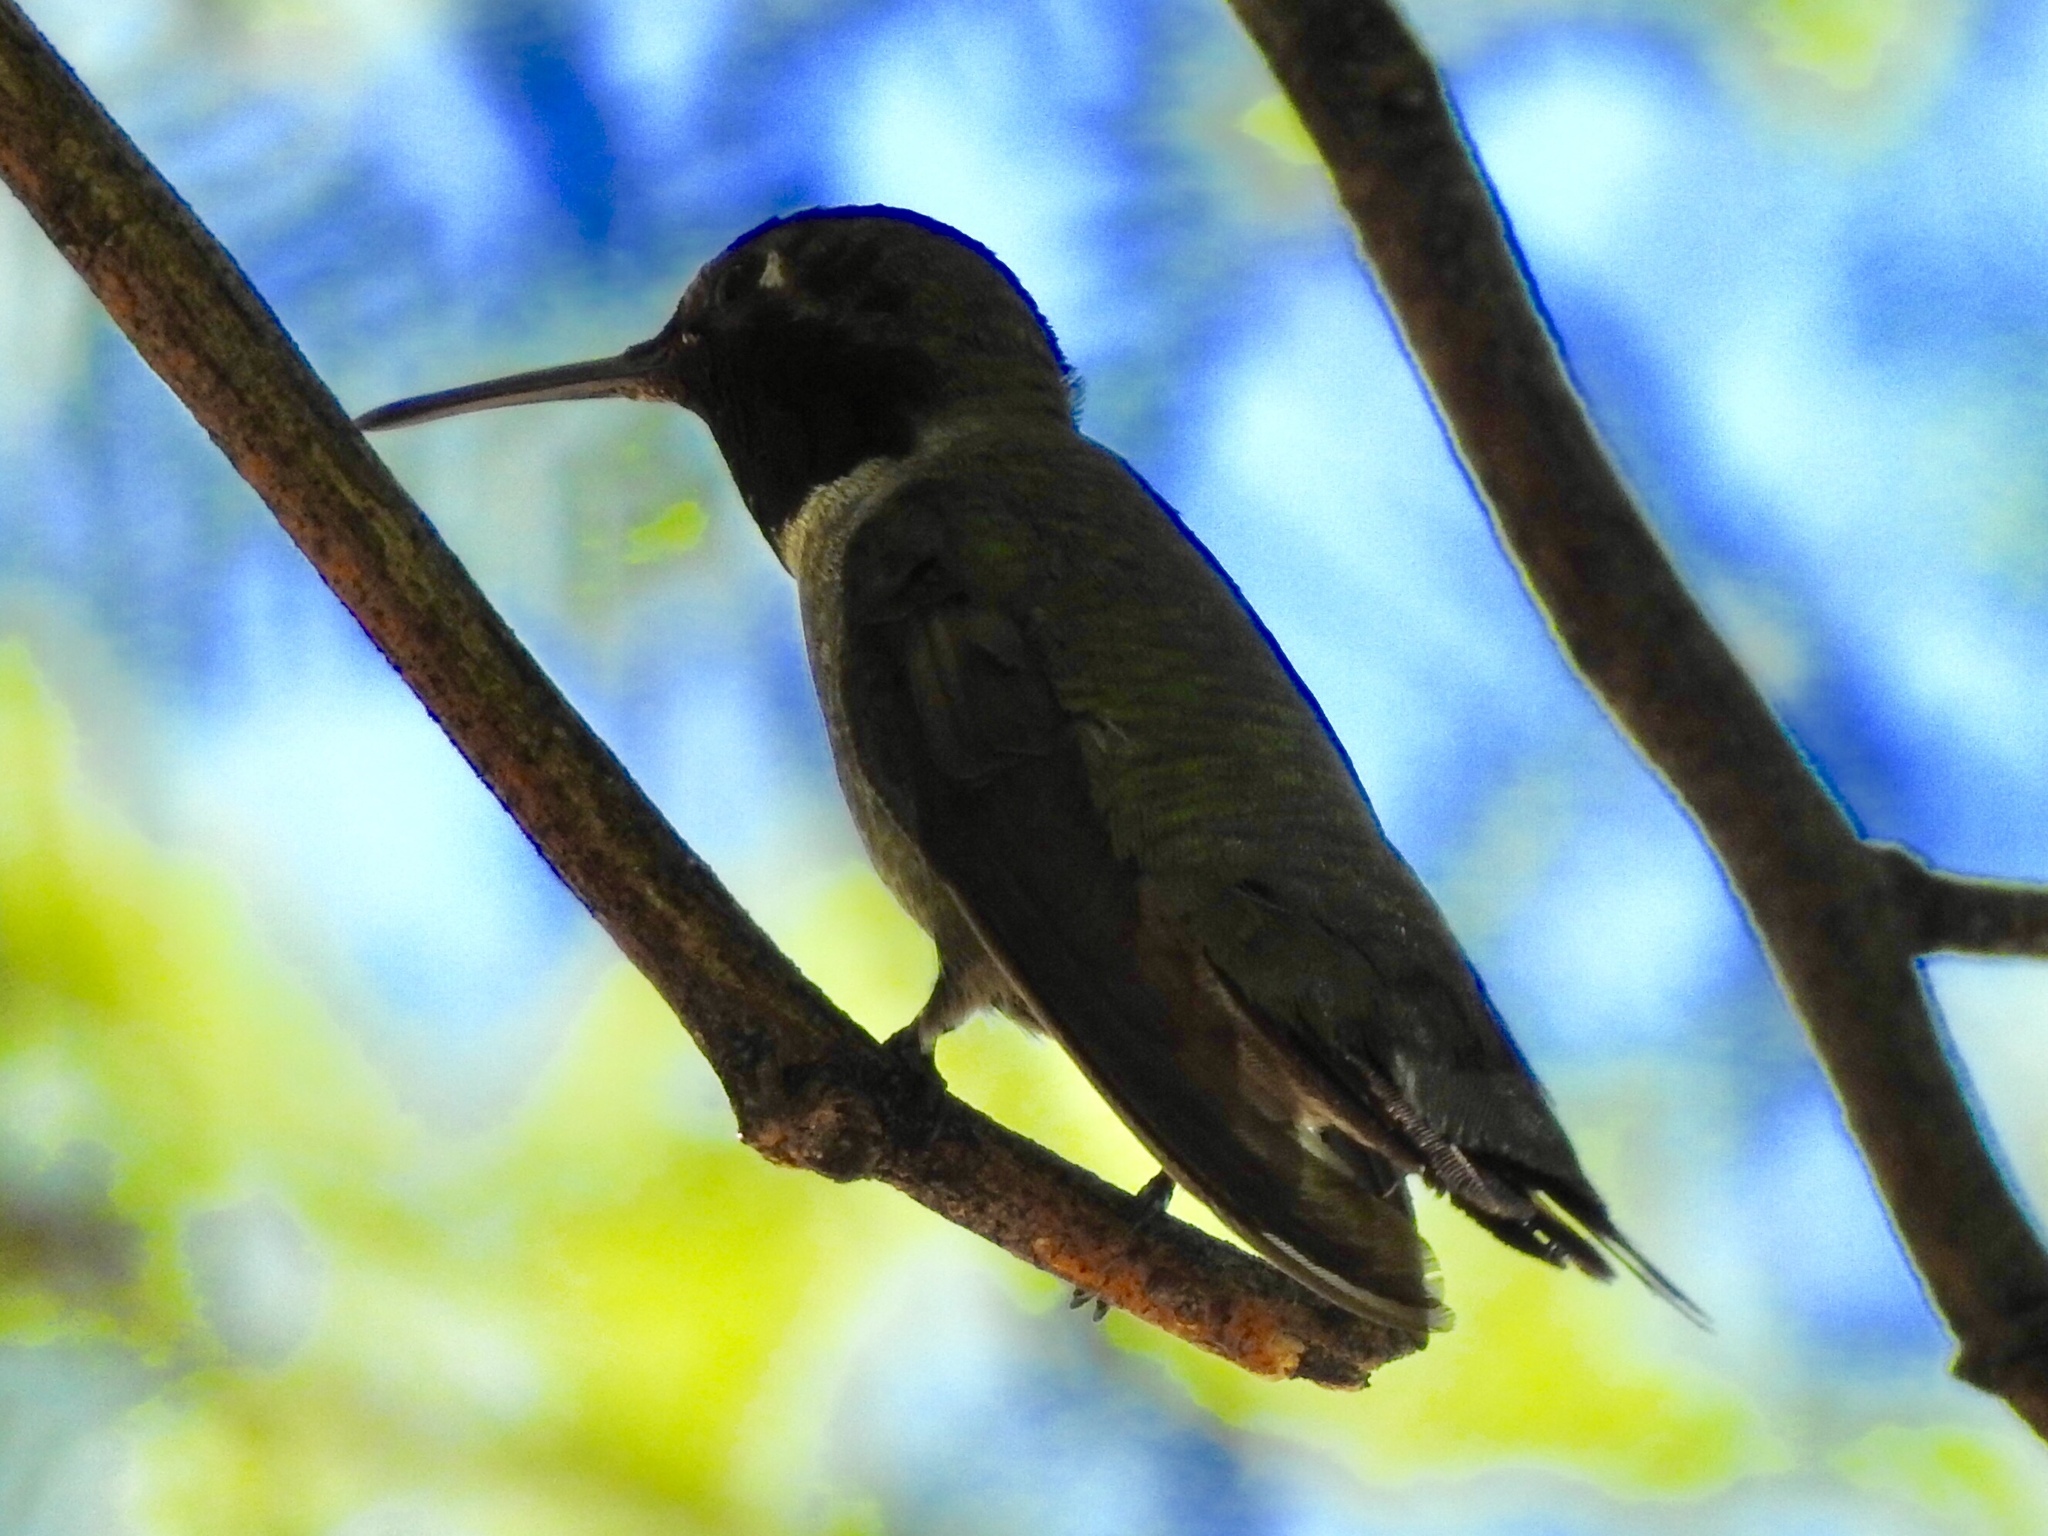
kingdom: Animalia
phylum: Chordata
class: Aves
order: Apodiformes
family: Trochilidae
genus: Calypte
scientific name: Calypte anna
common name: Anna's hummingbird
